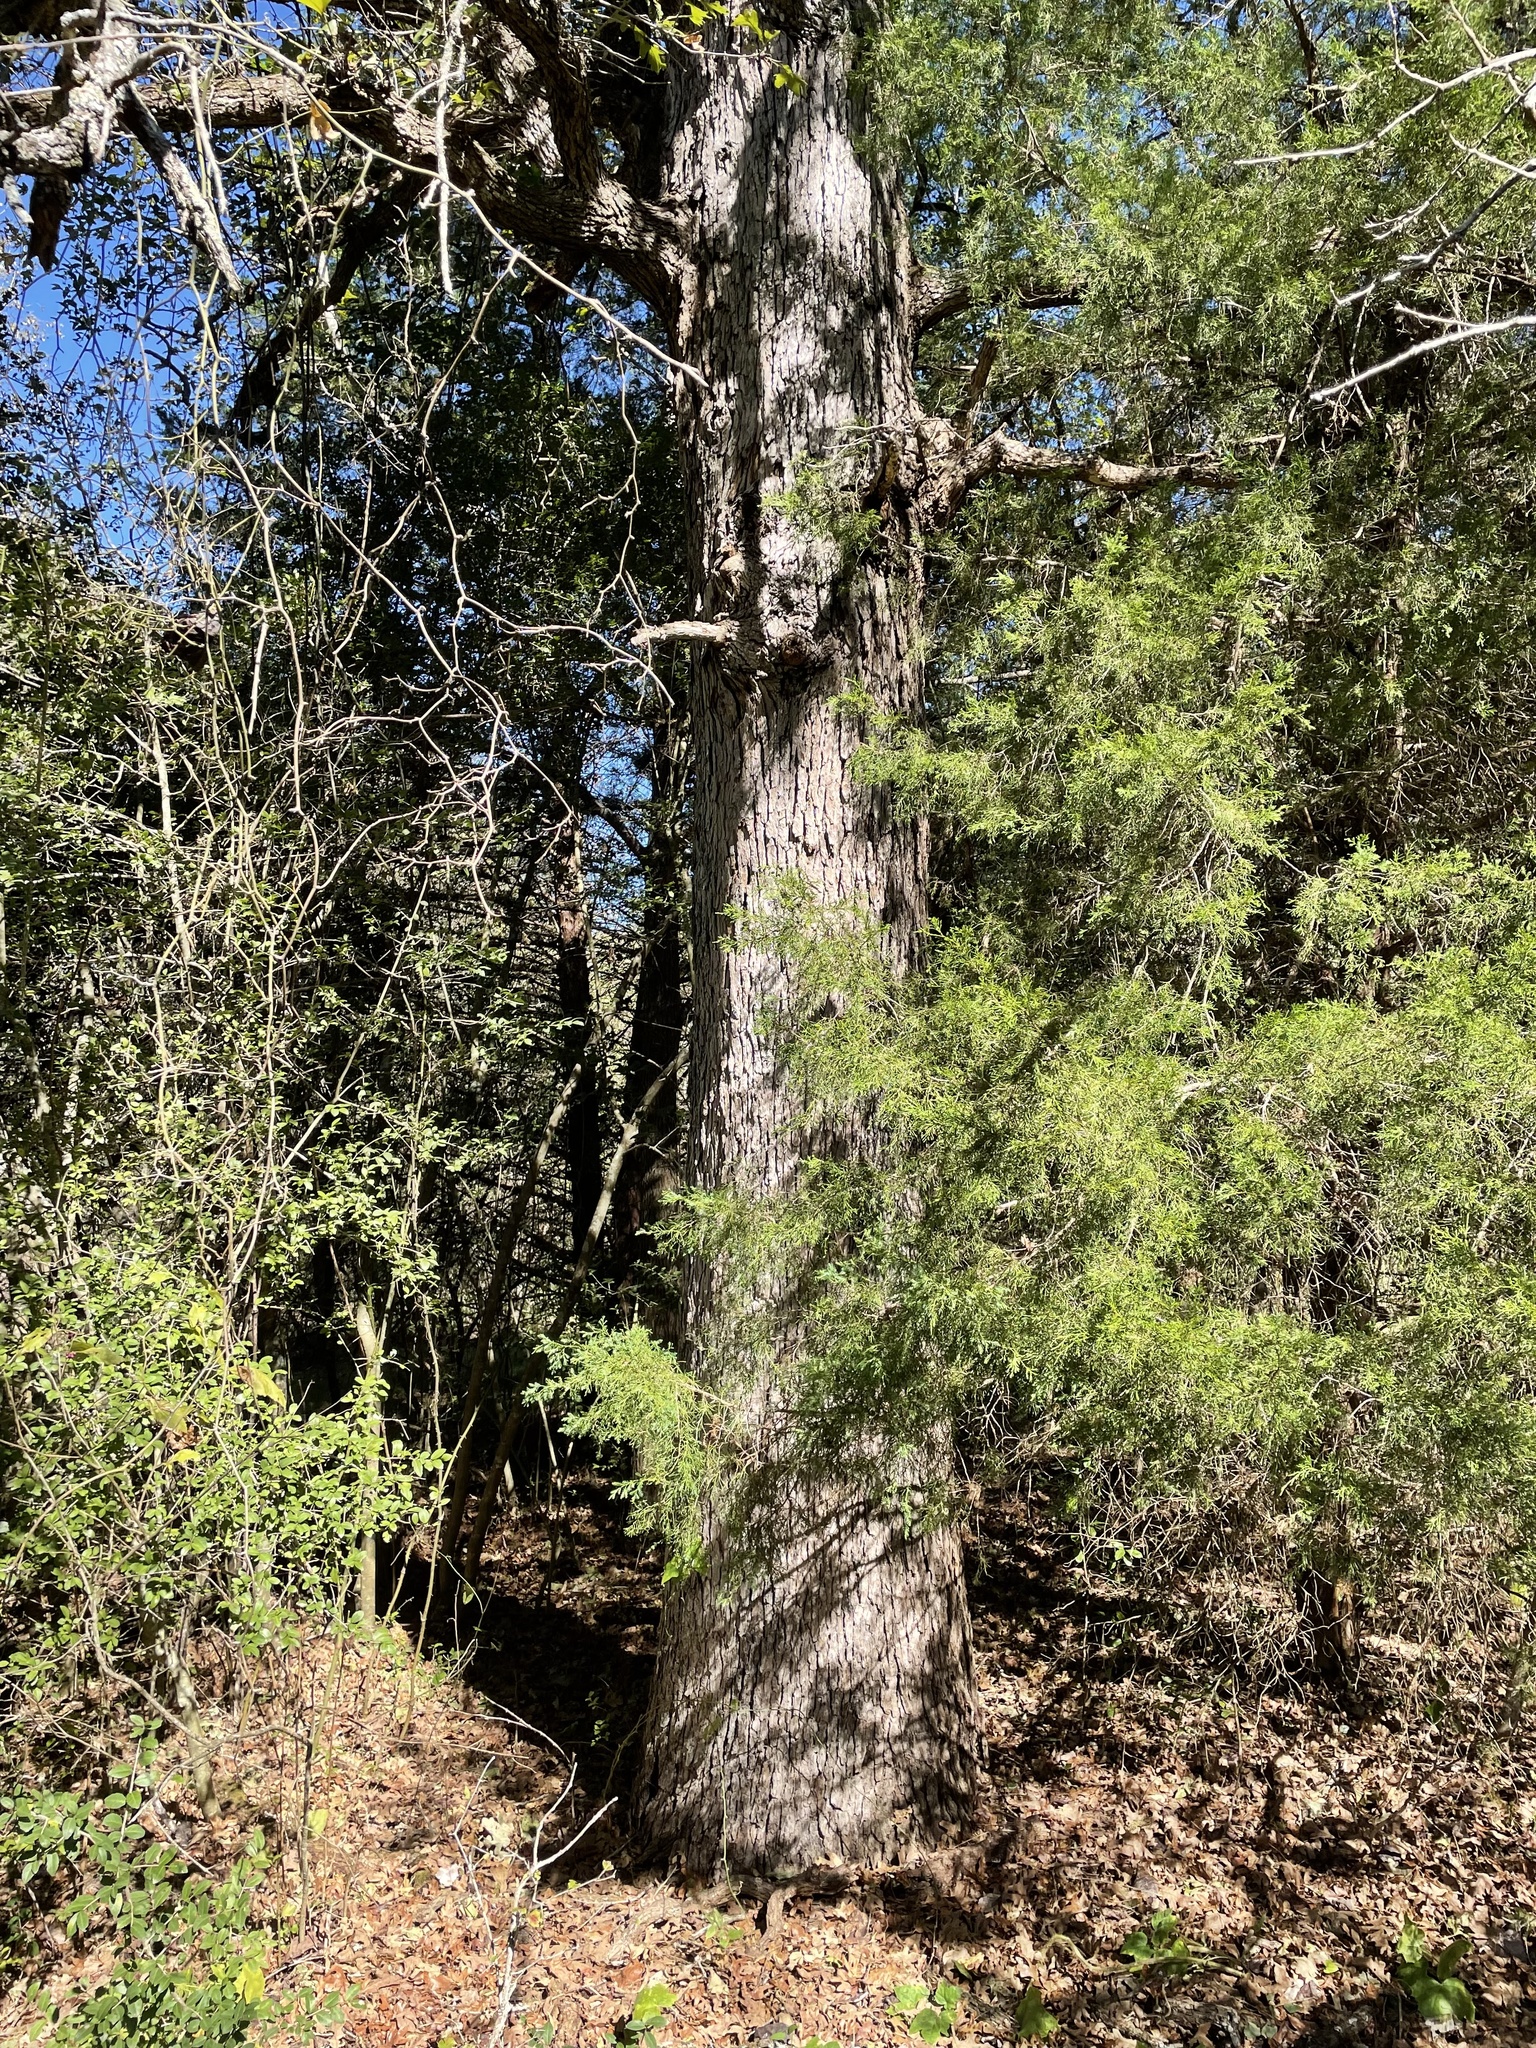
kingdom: Plantae
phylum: Tracheophyta
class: Magnoliopsida
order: Fagales
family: Fagaceae
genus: Quercus
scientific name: Quercus margaretiae
